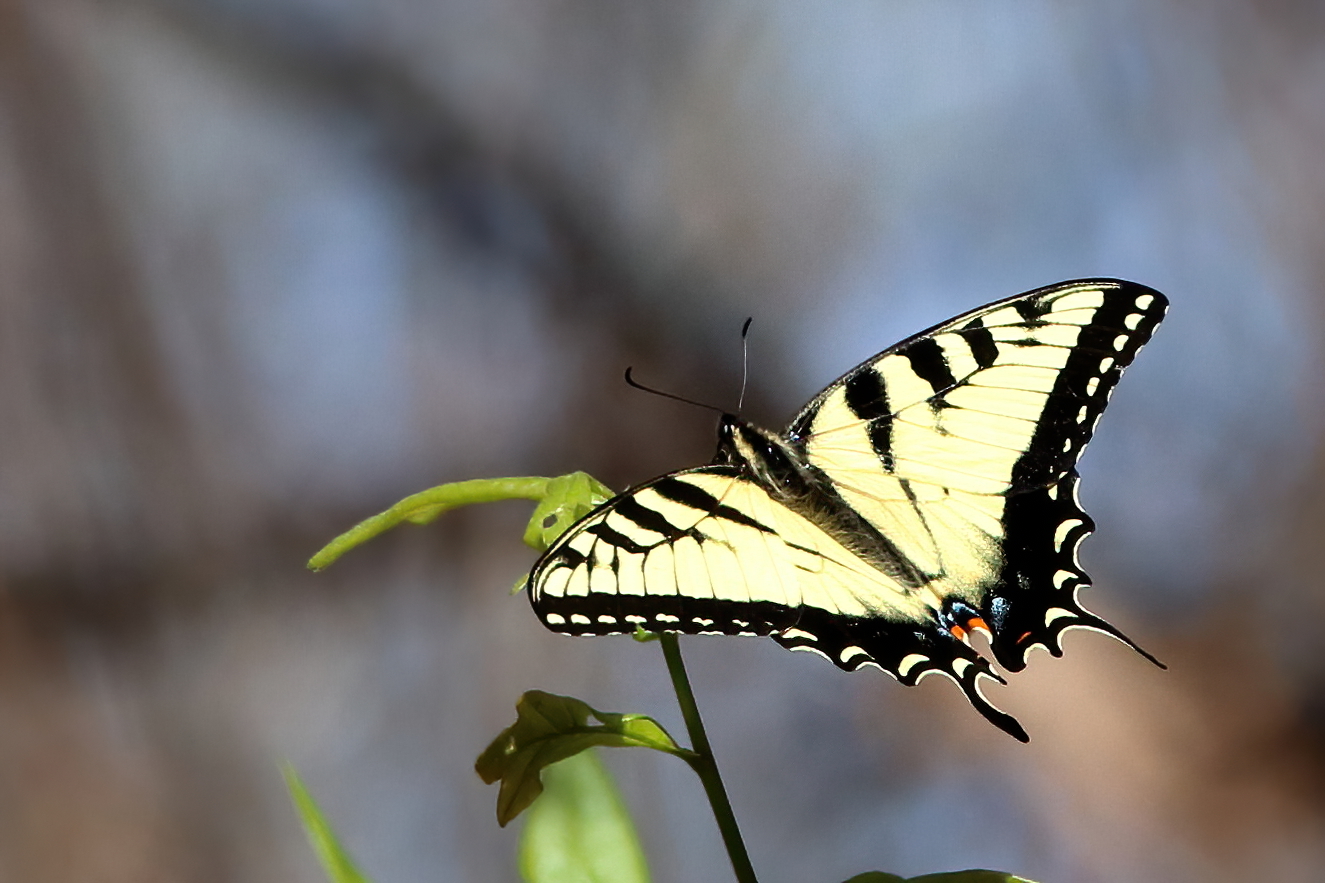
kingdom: Animalia
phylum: Arthropoda
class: Insecta
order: Lepidoptera
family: Papilionidae
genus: Papilio
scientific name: Papilio glaucus
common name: Tiger swallowtail
